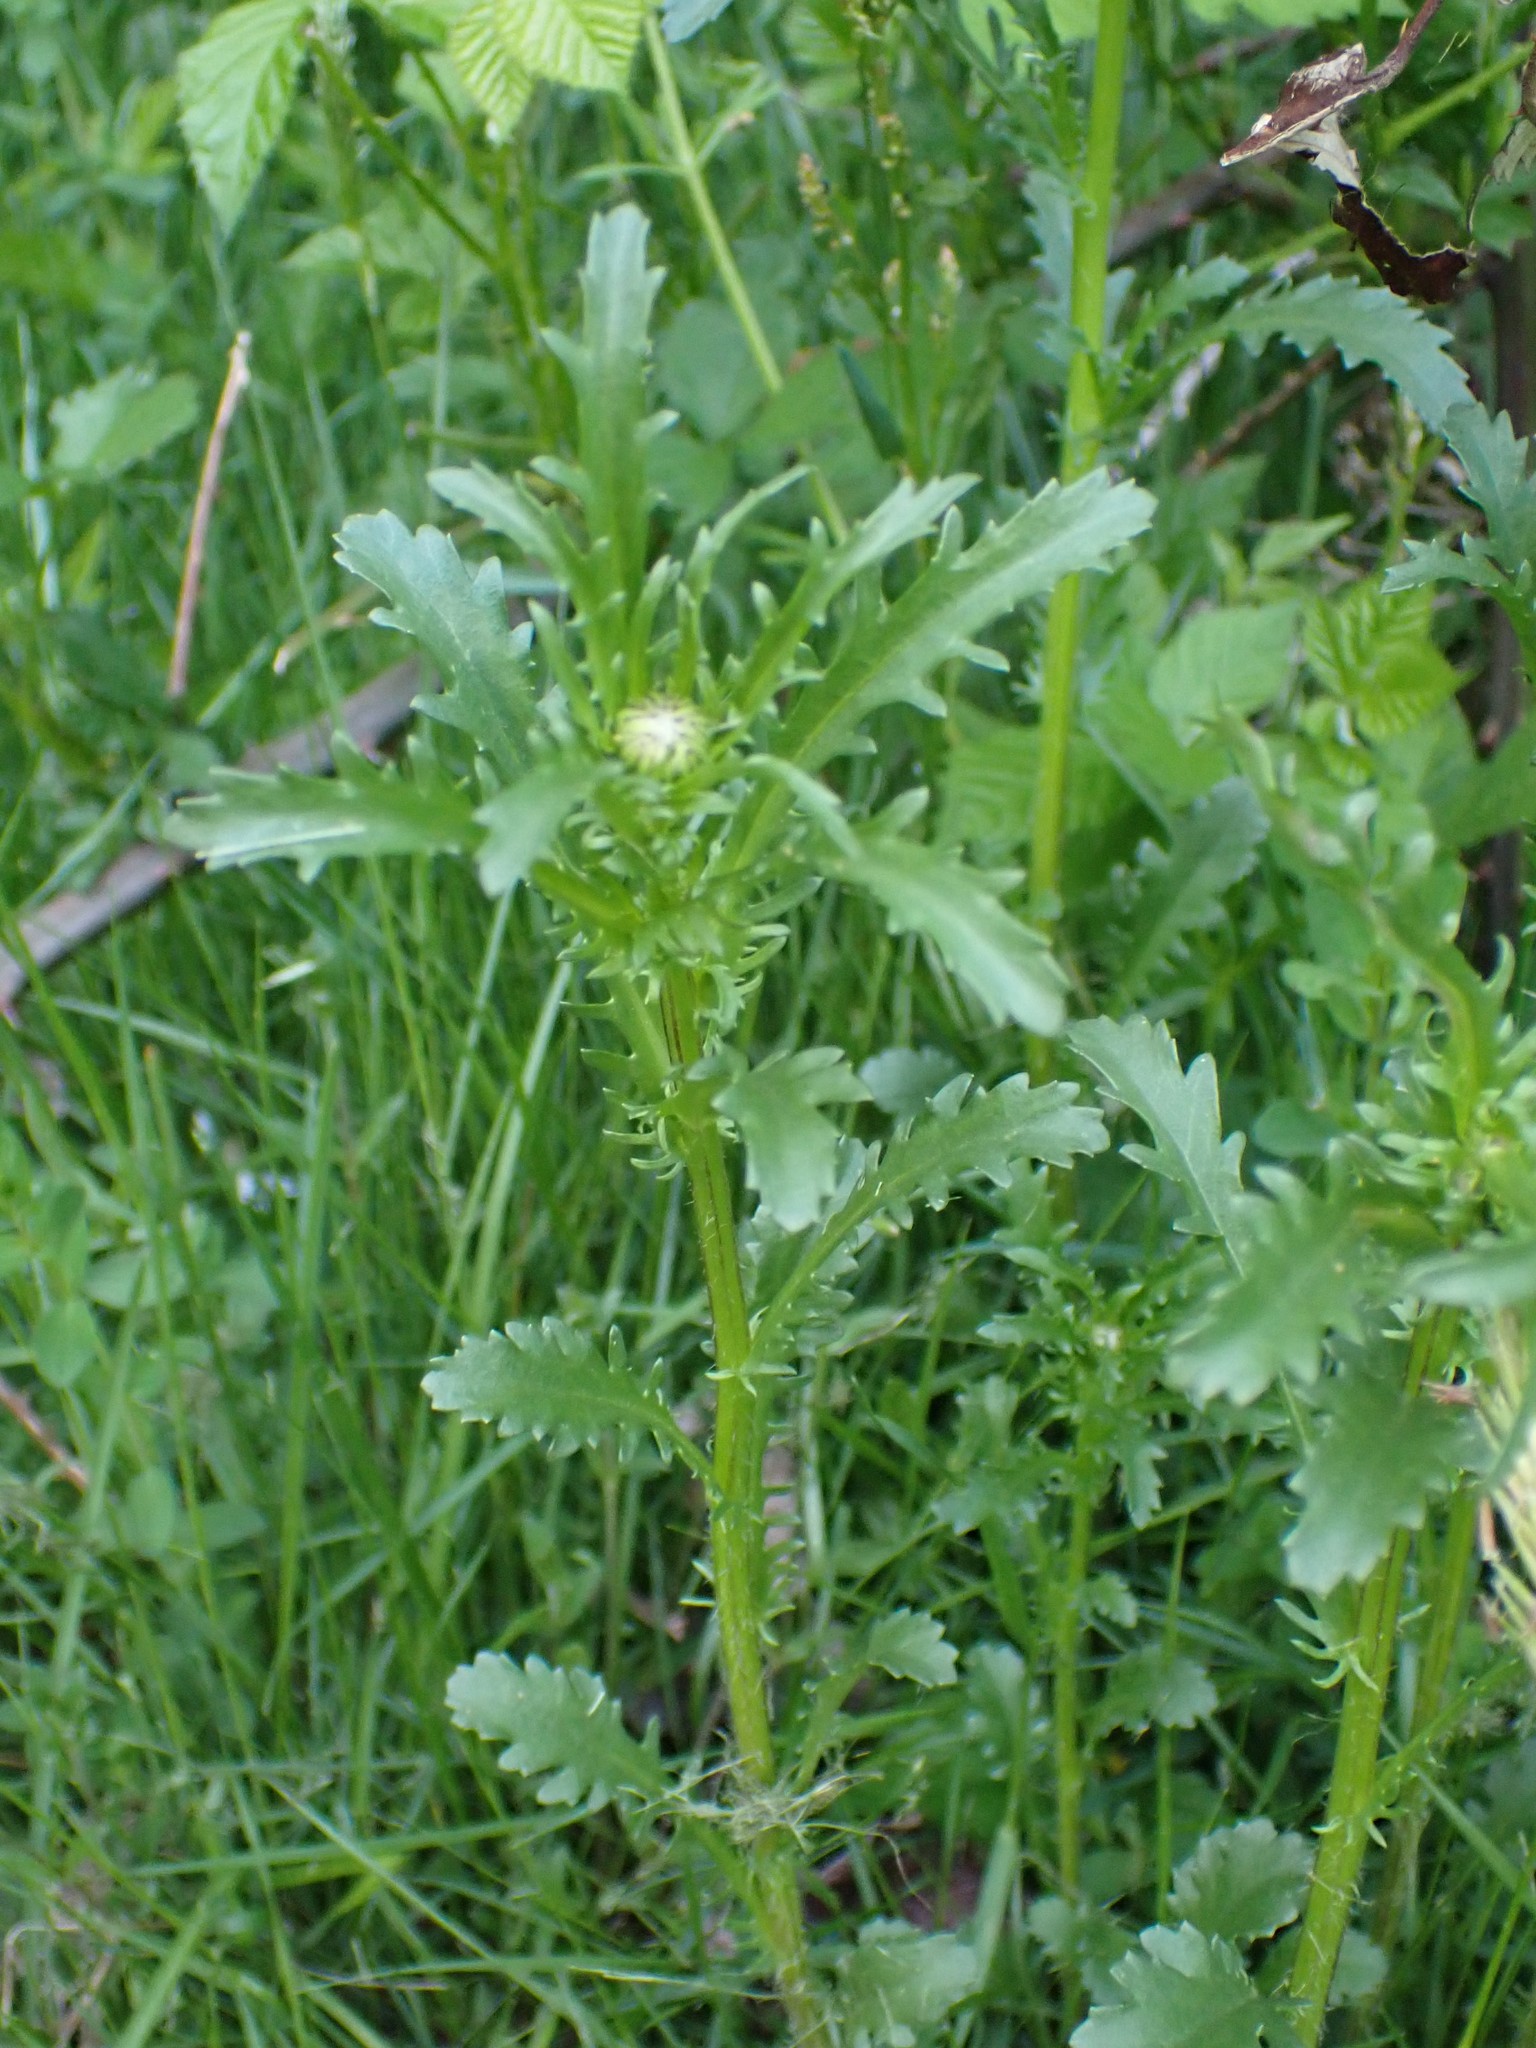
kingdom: Plantae
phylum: Tracheophyta
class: Magnoliopsida
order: Asterales
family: Asteraceae
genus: Leucanthemum
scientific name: Leucanthemum vulgare
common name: Oxeye daisy
